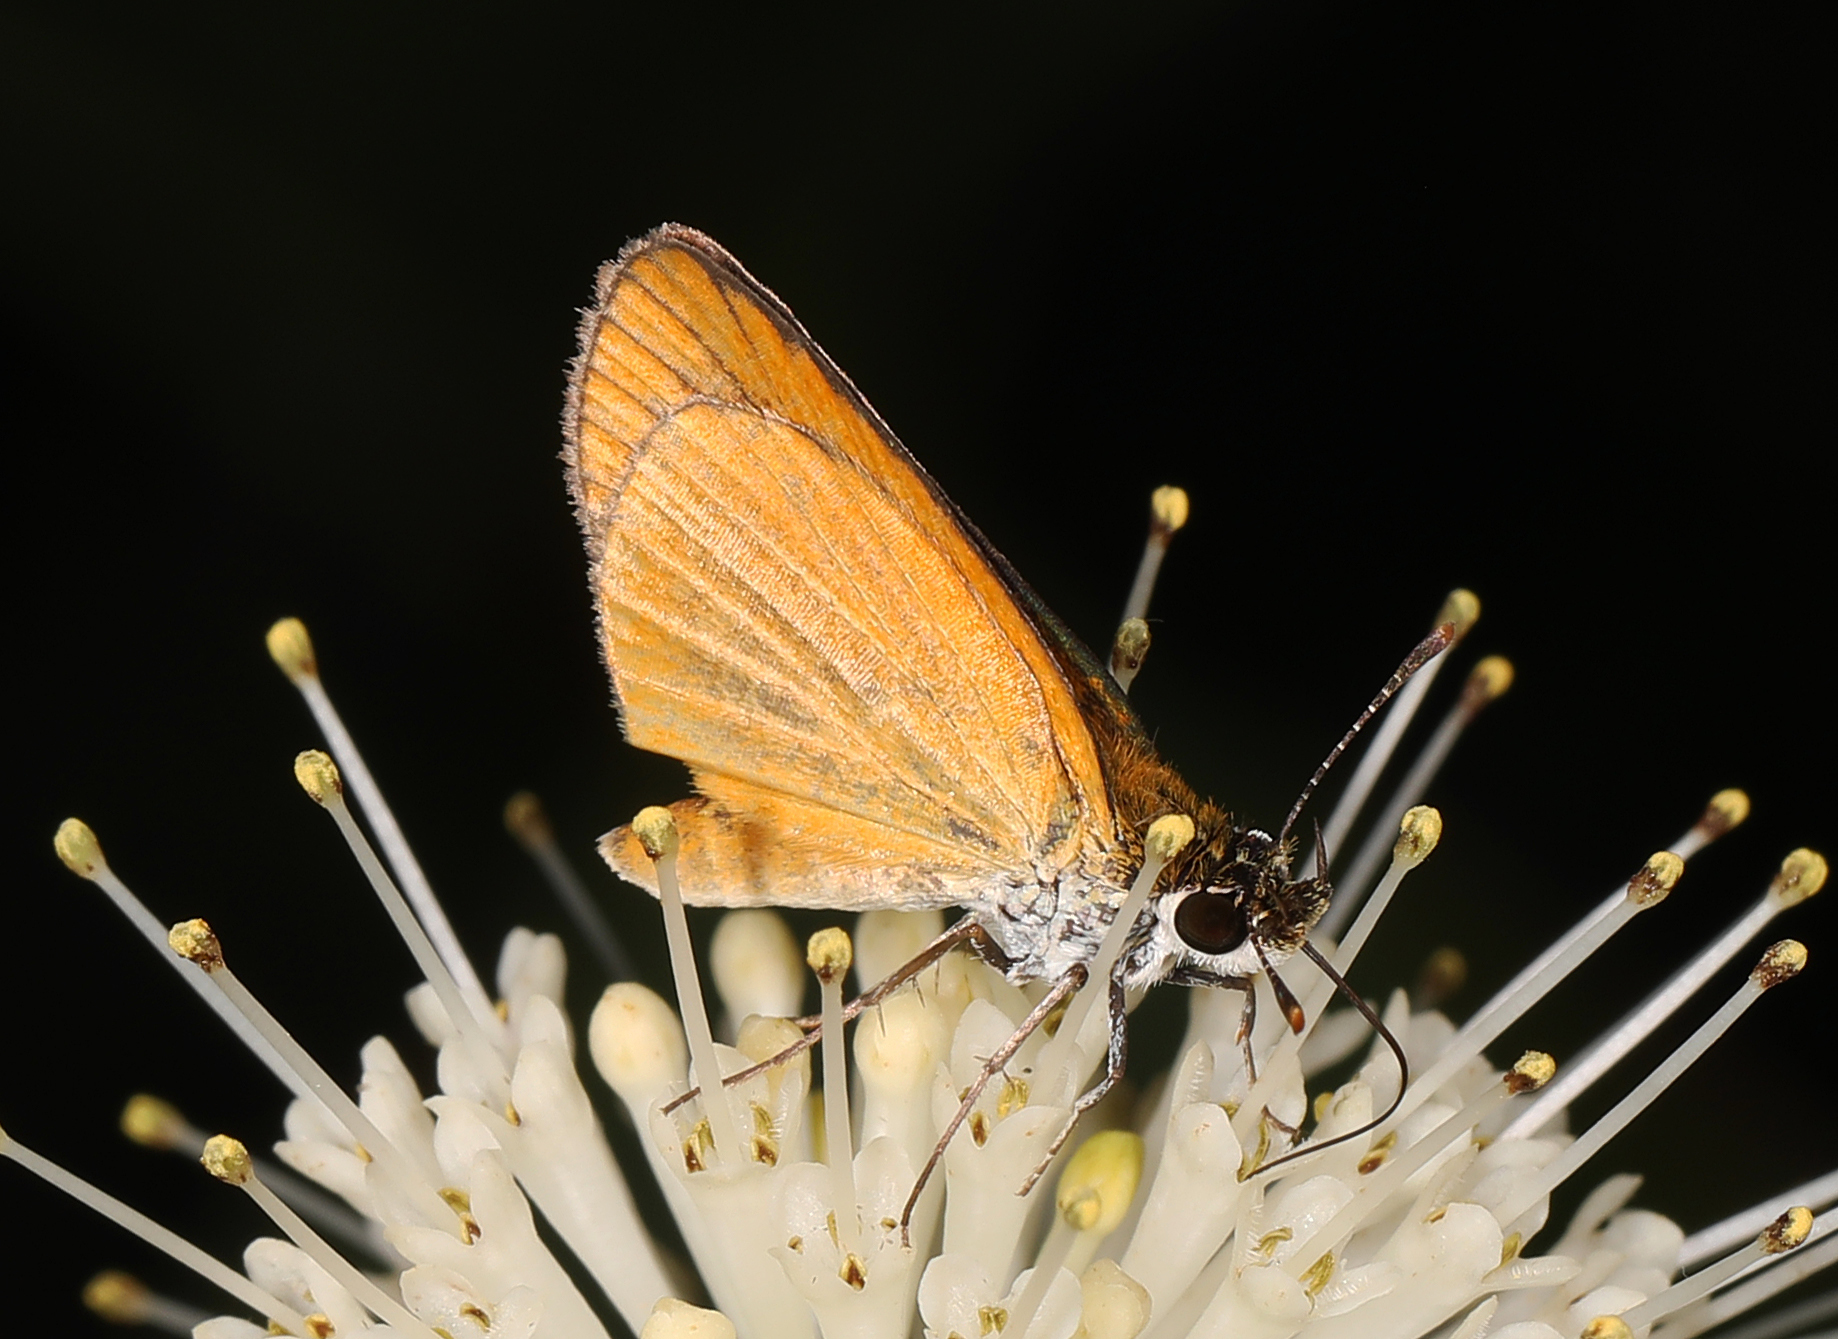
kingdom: Animalia
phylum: Arthropoda
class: Insecta
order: Lepidoptera
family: Hesperiidae
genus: Ancyloxypha
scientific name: Ancyloxypha numitor
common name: Least skipper
